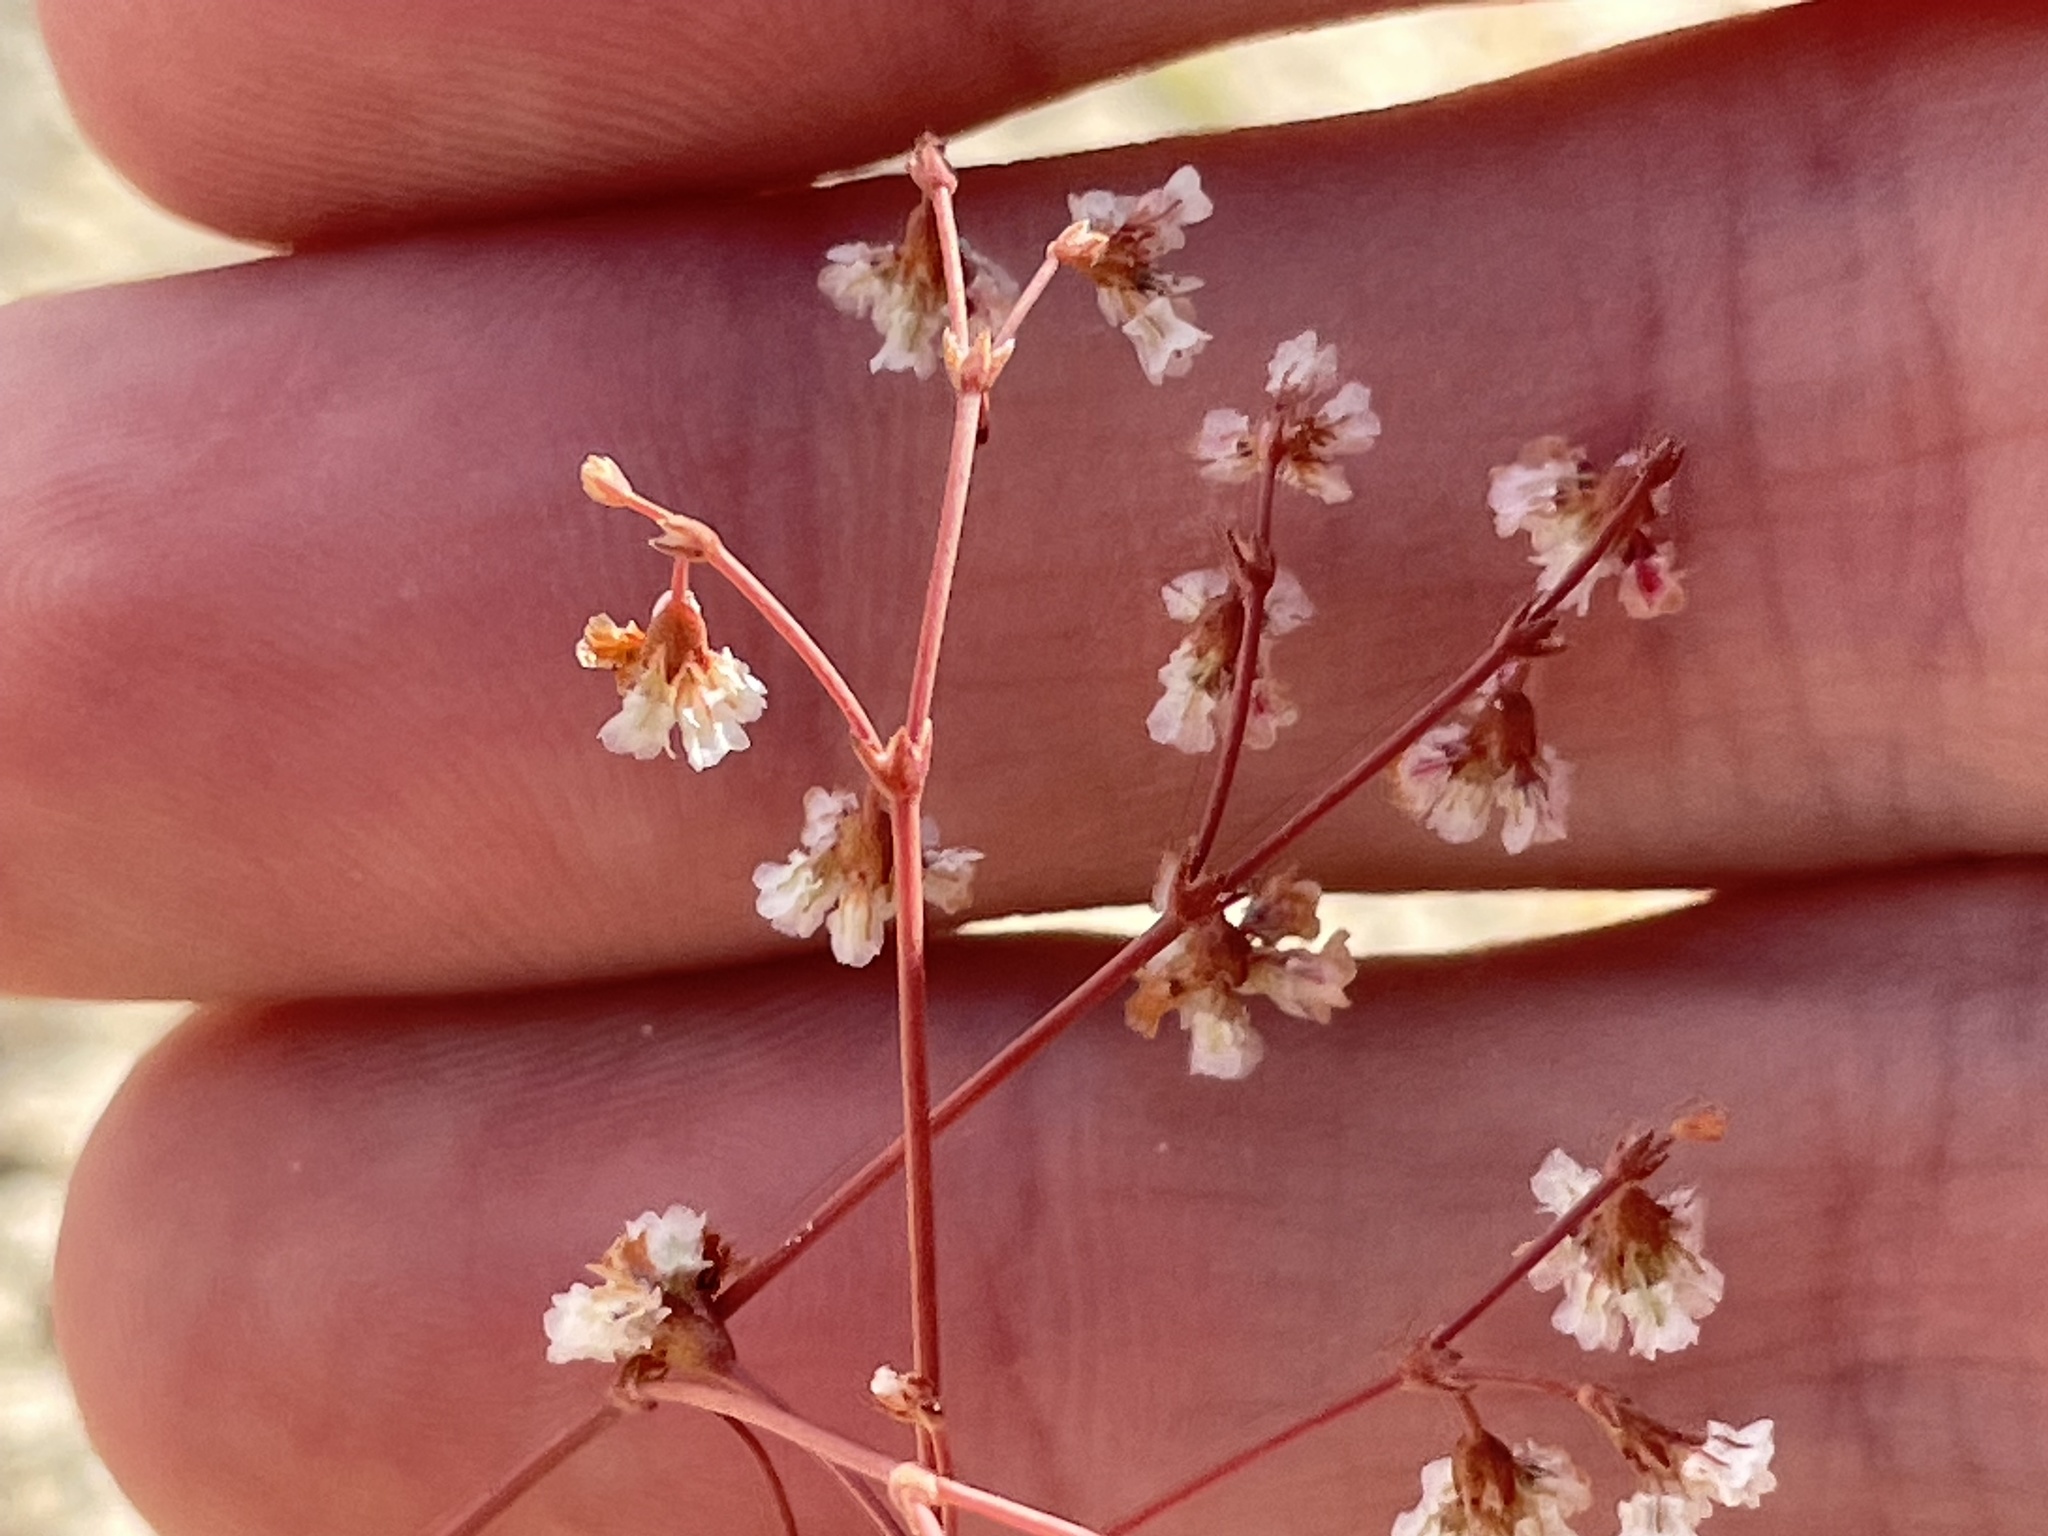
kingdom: Plantae
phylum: Tracheophyta
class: Magnoliopsida
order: Caryophyllales
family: Polygonaceae
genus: Eriogonum
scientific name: Eriogonum cernuum
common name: Nodding wild buckwheat
